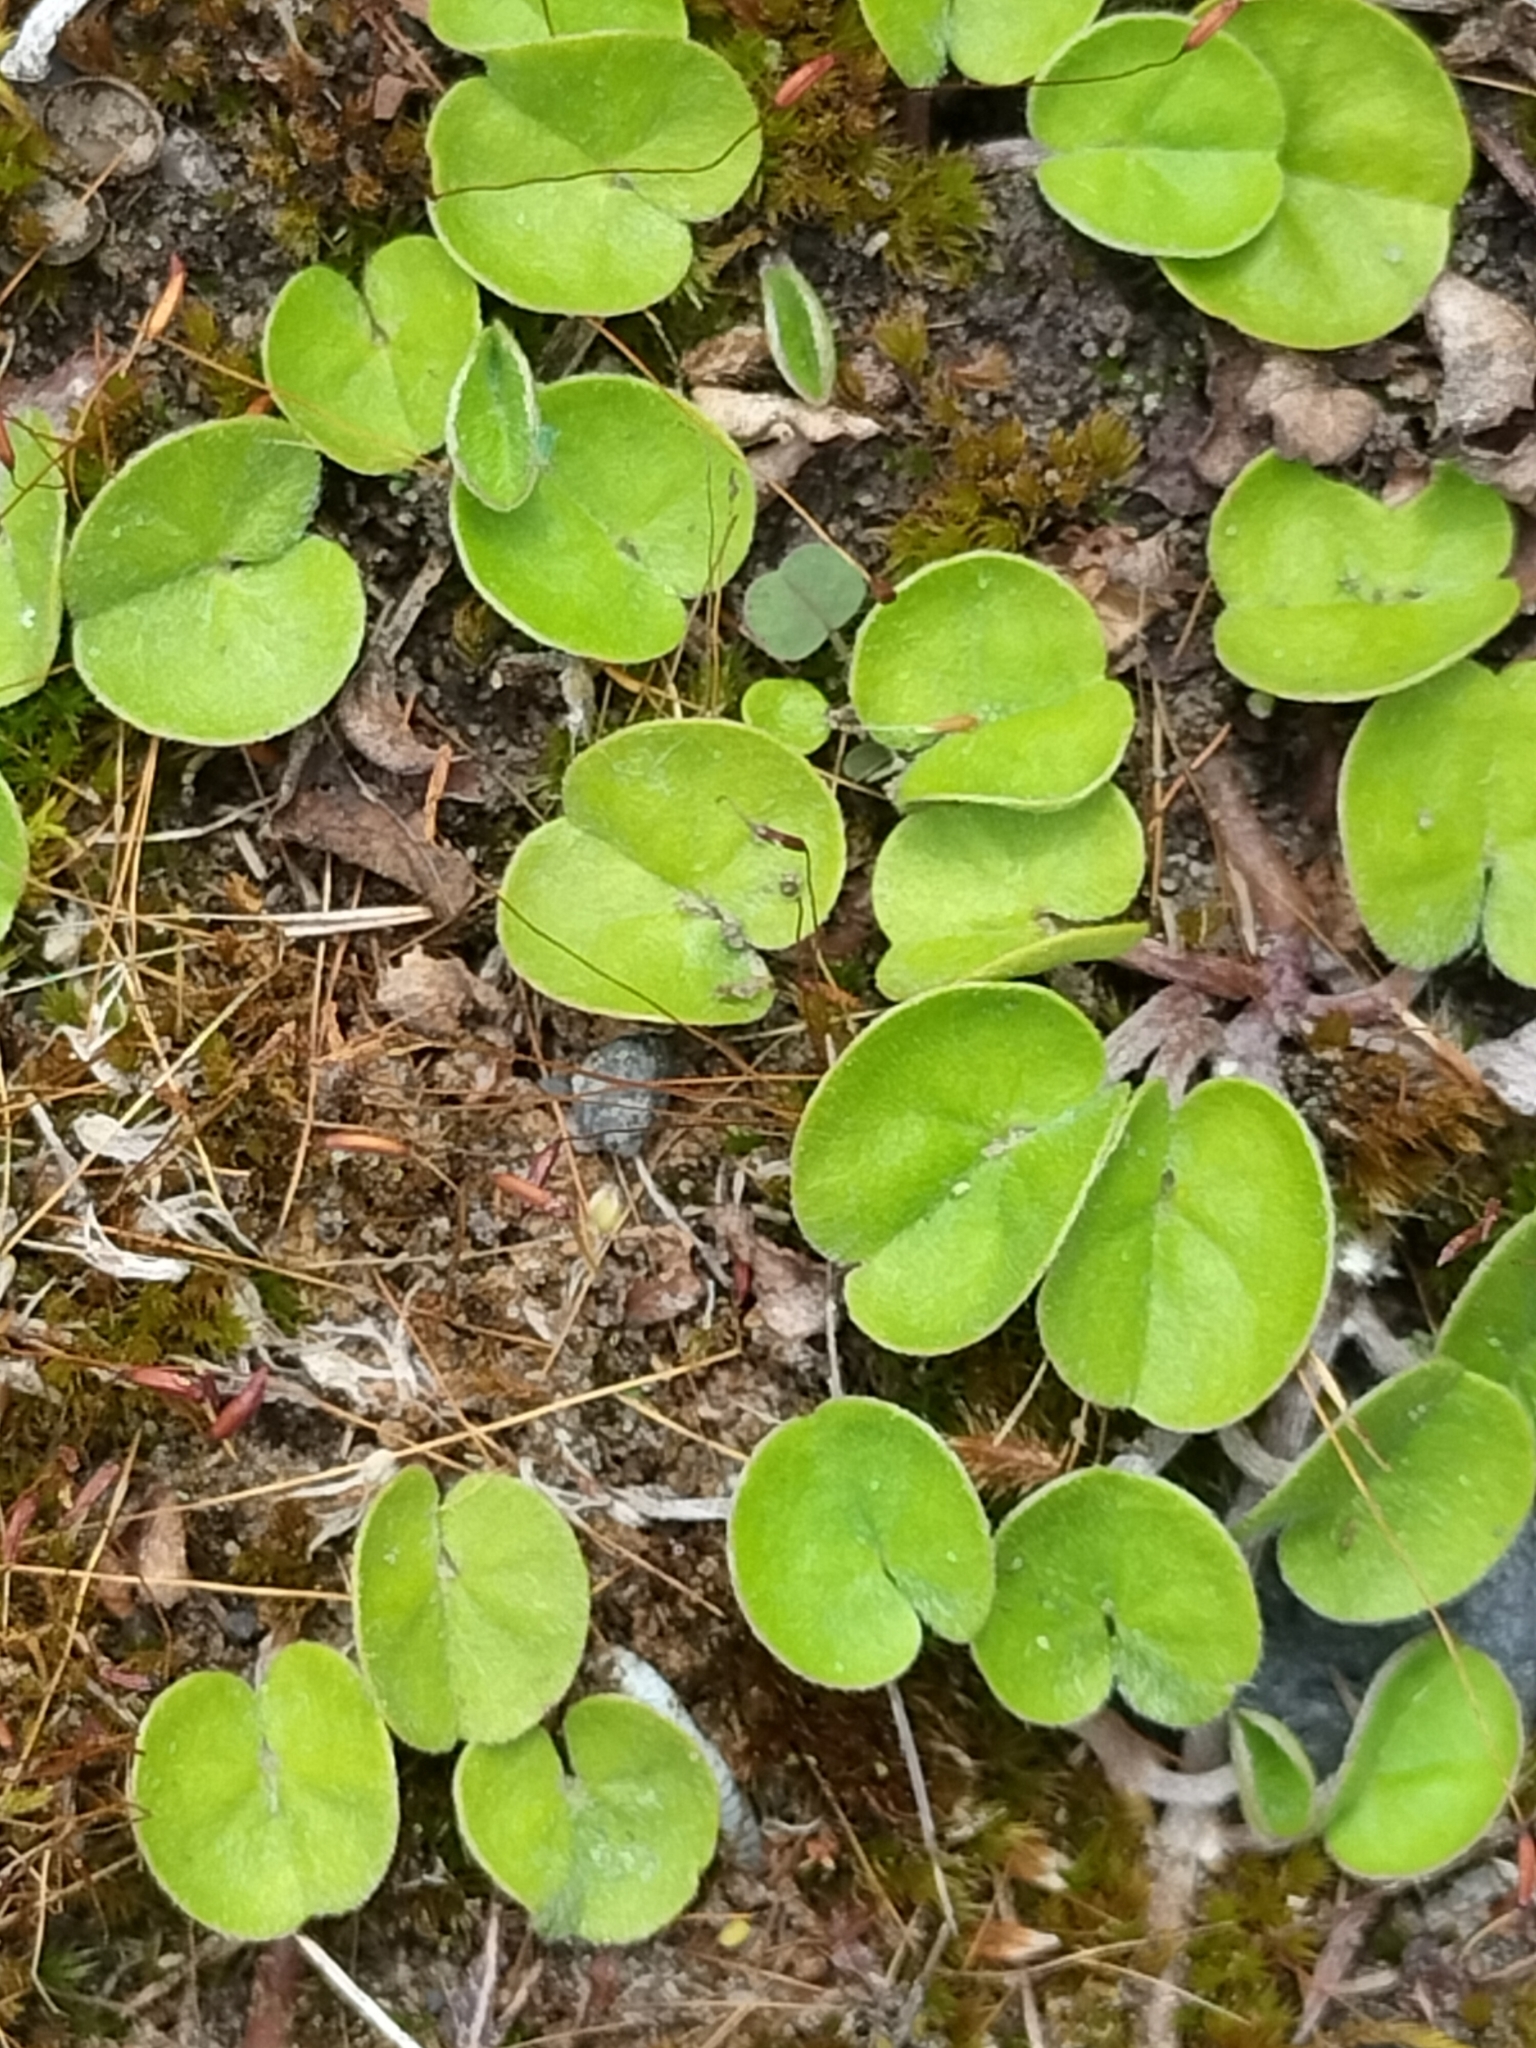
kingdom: Plantae
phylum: Tracheophyta
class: Magnoliopsida
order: Solanales
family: Convolvulaceae
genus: Dichondra
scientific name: Dichondra repens
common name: Kidneyweed
